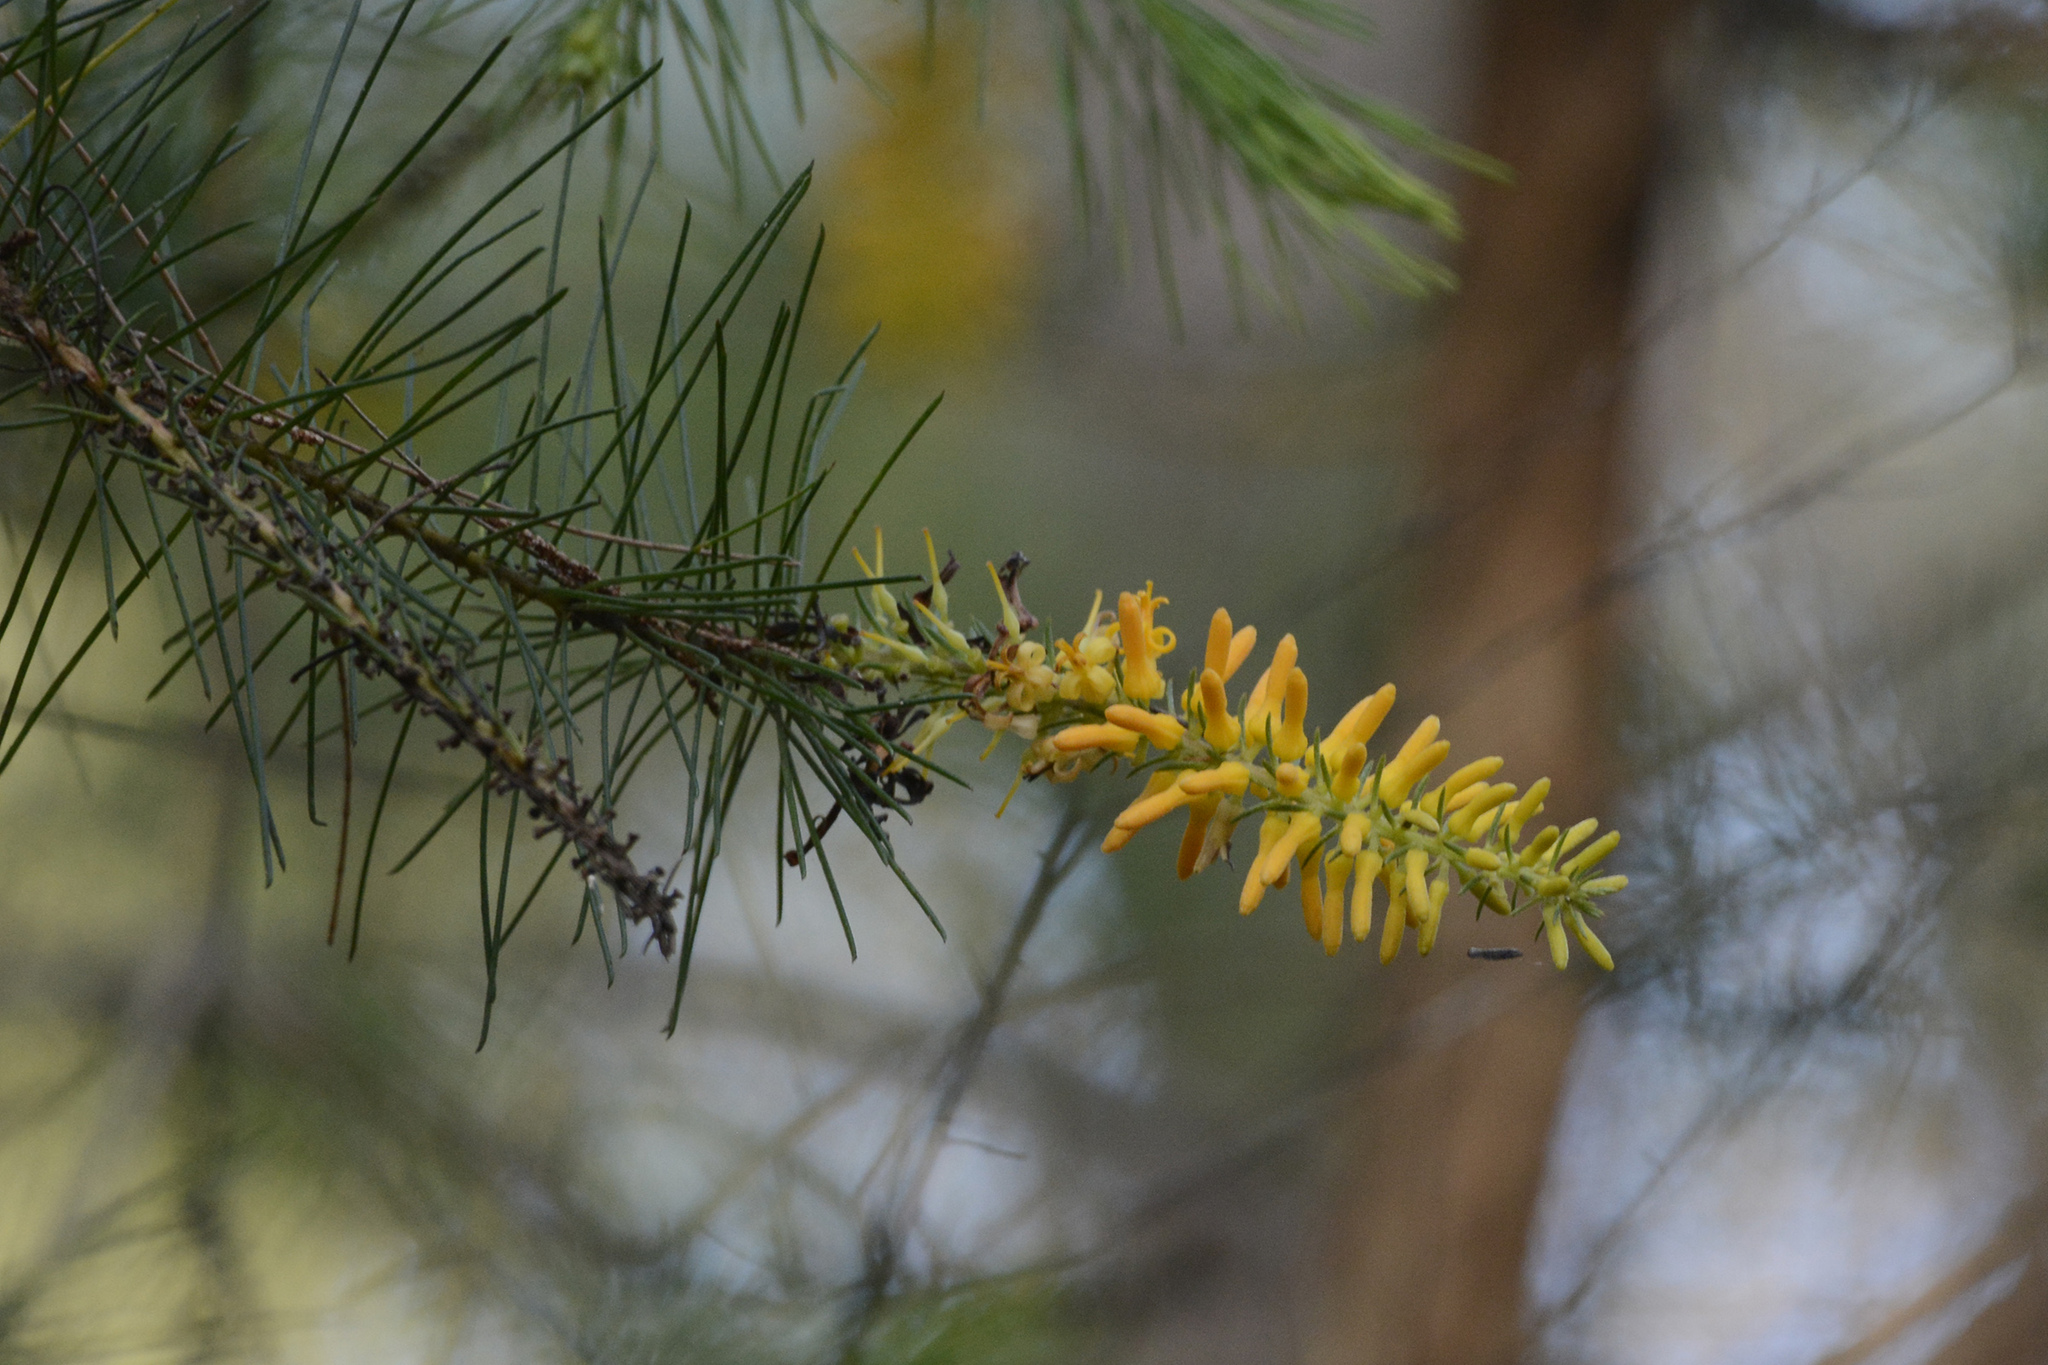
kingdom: Plantae
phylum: Tracheophyta
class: Magnoliopsida
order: Proteales
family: Proteaceae
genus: Persoonia
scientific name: Persoonia pinifolia
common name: Pine-leaf geebung
